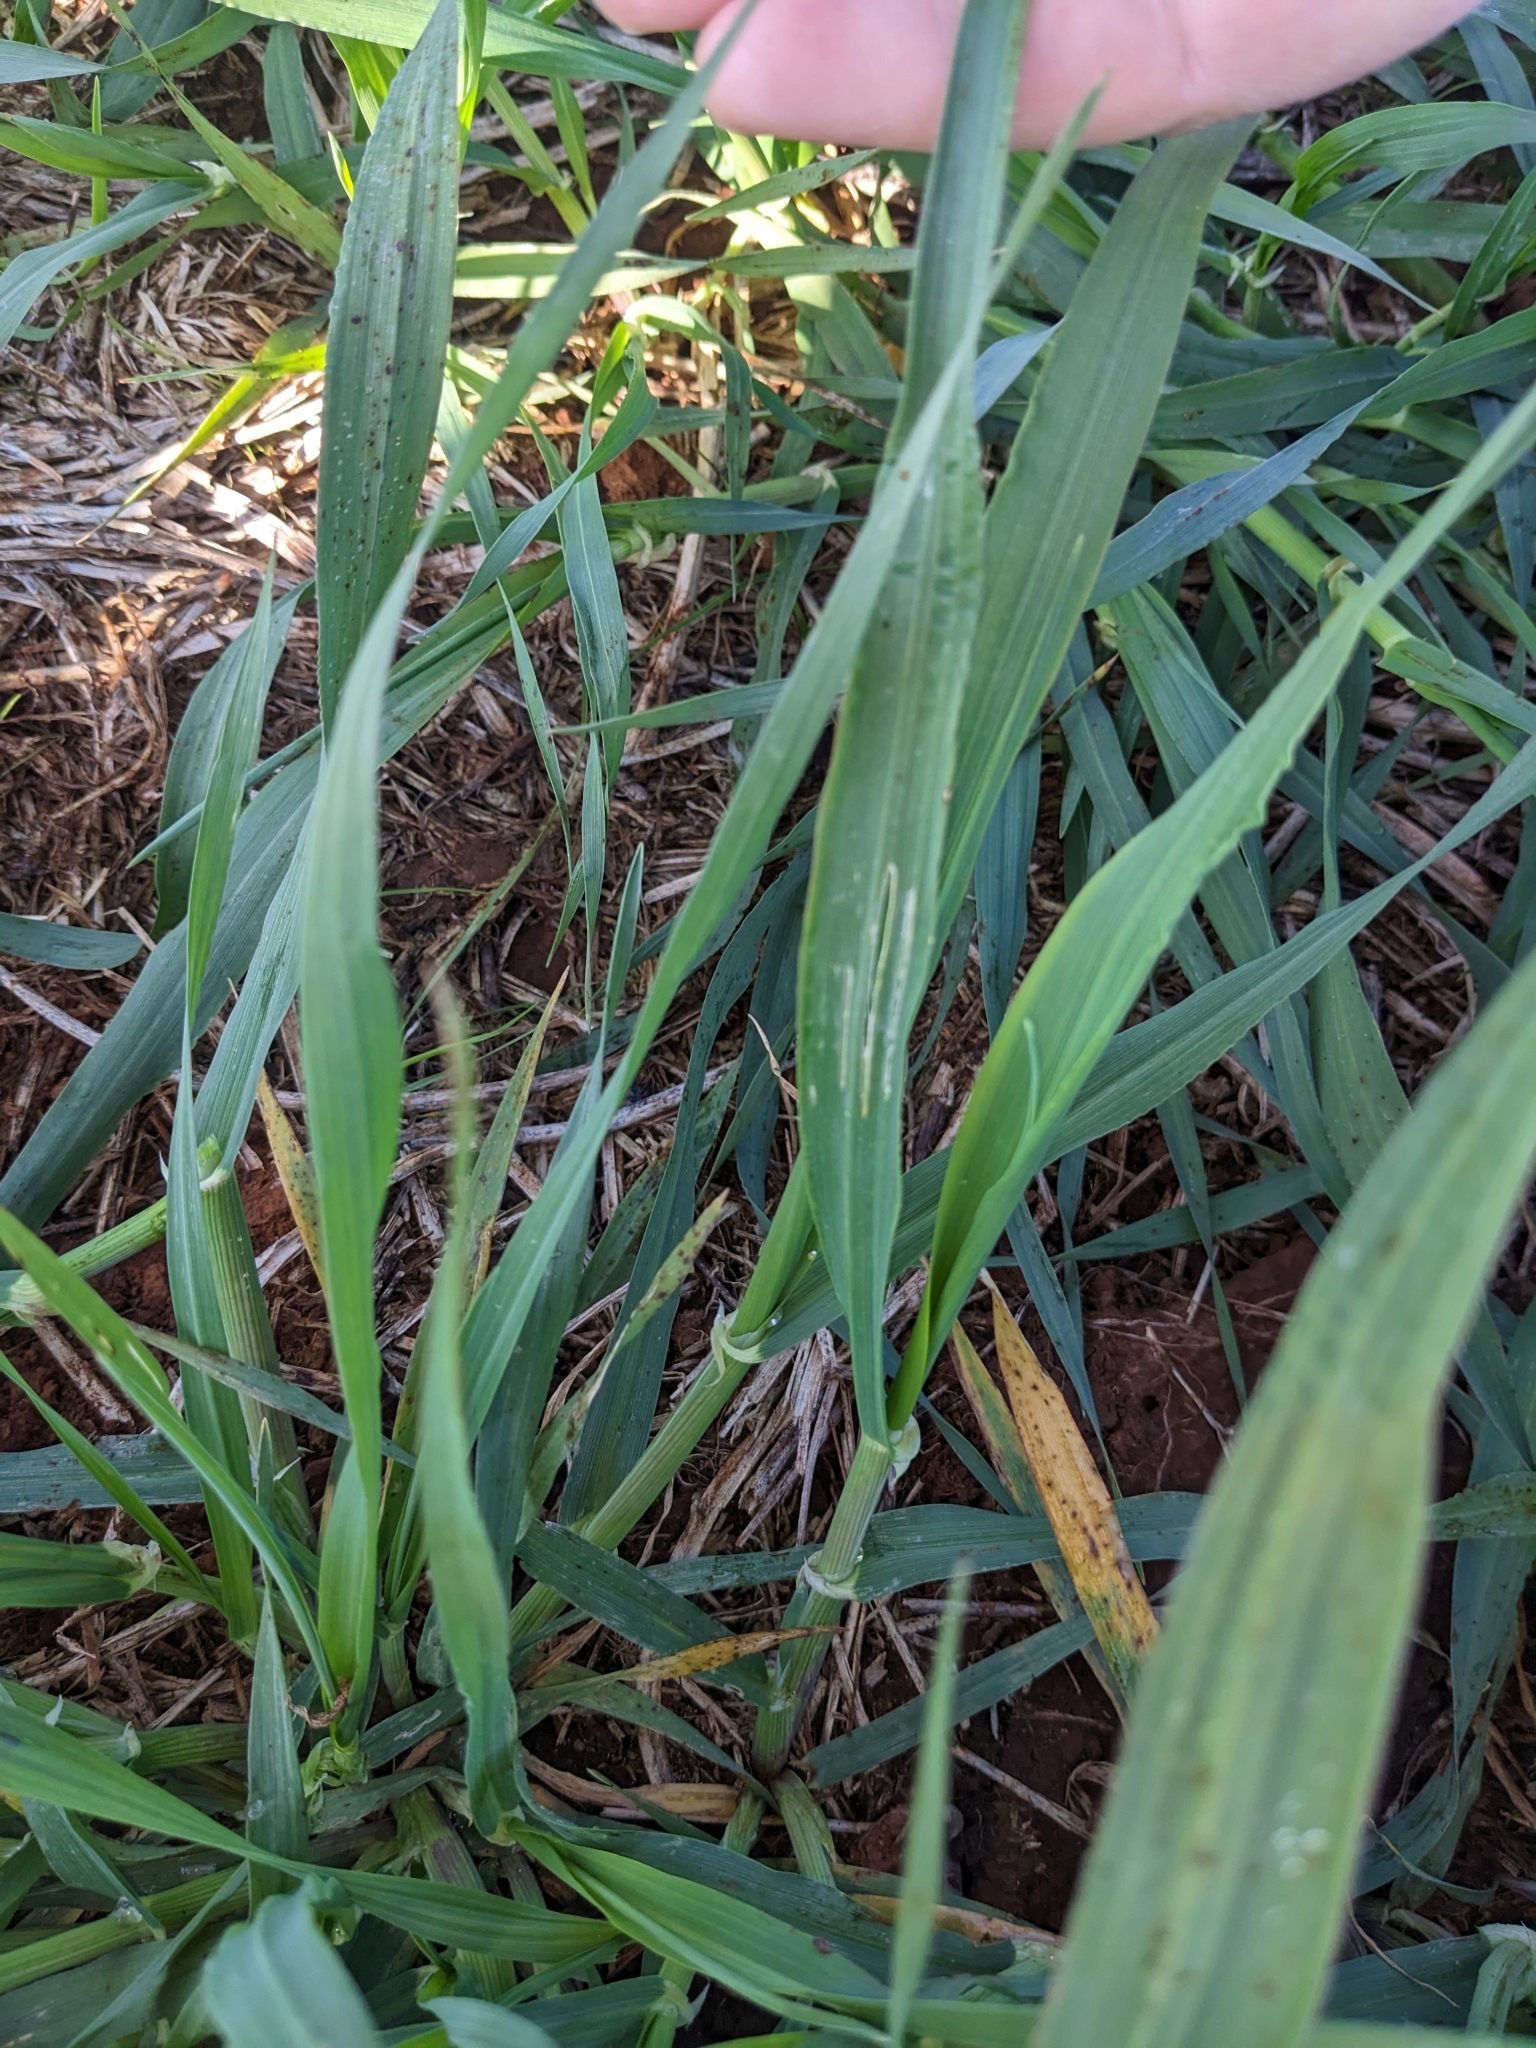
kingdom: Animalia
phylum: Mollusca
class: Gastropoda
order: Stylommatophora
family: Agriolimacidae
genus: Deroceras
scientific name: Deroceras reticulatum
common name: Gray field slug
